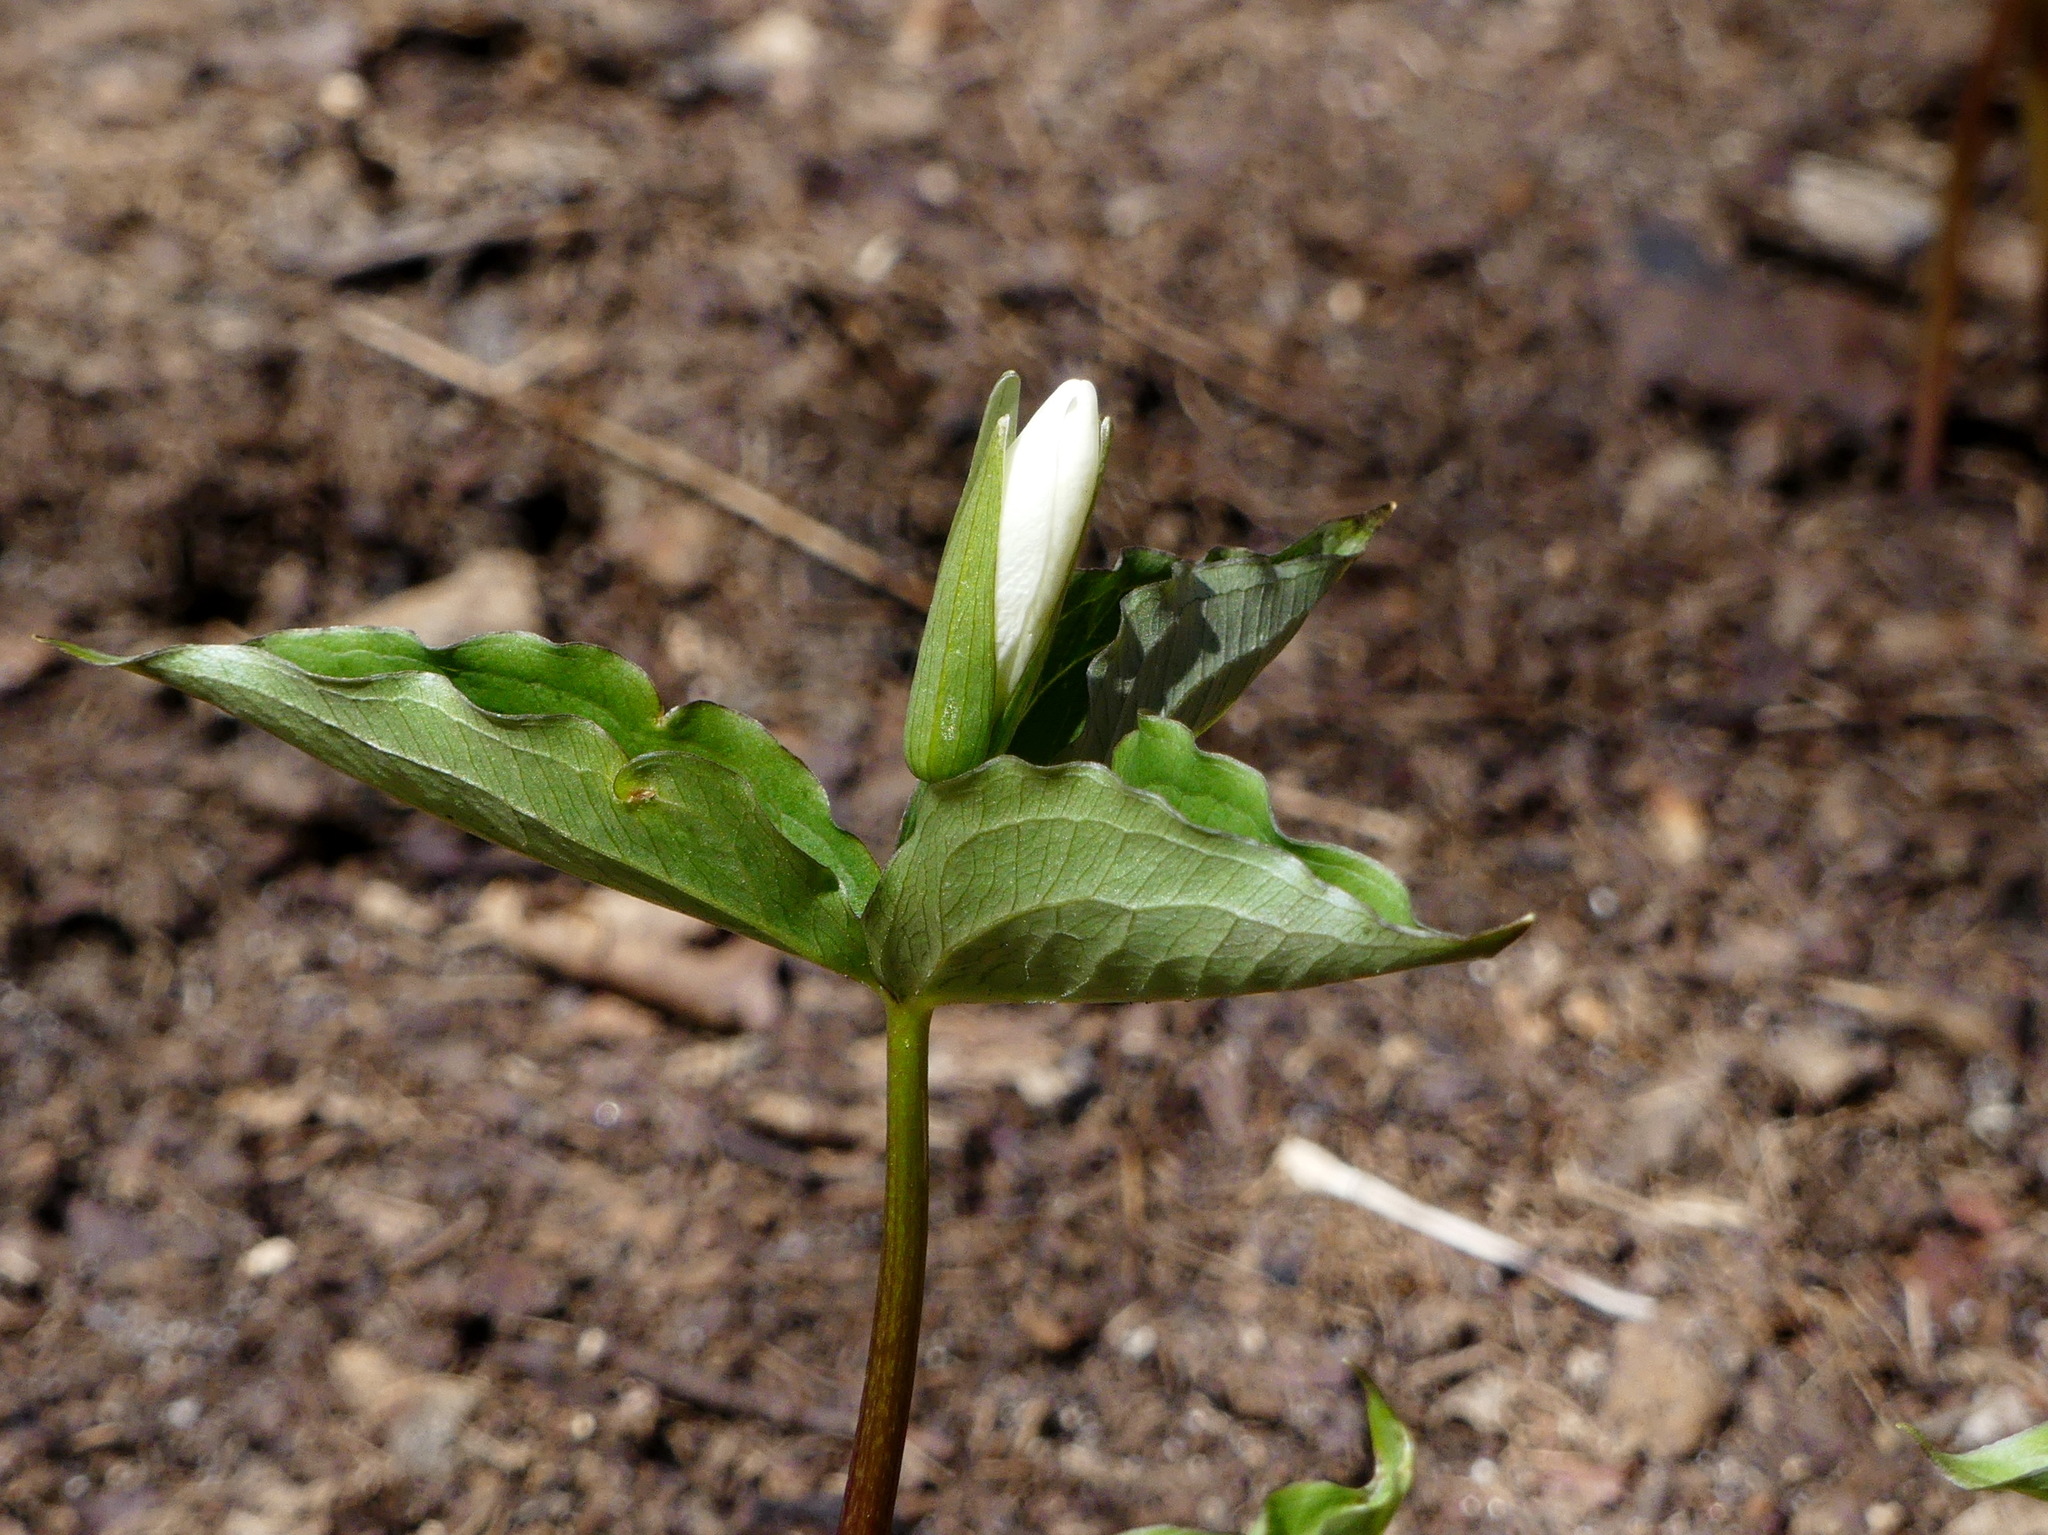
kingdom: Plantae
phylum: Tracheophyta
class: Liliopsida
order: Liliales
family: Melanthiaceae
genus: Trillium
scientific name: Trillium grandiflorum
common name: Great white trillium
